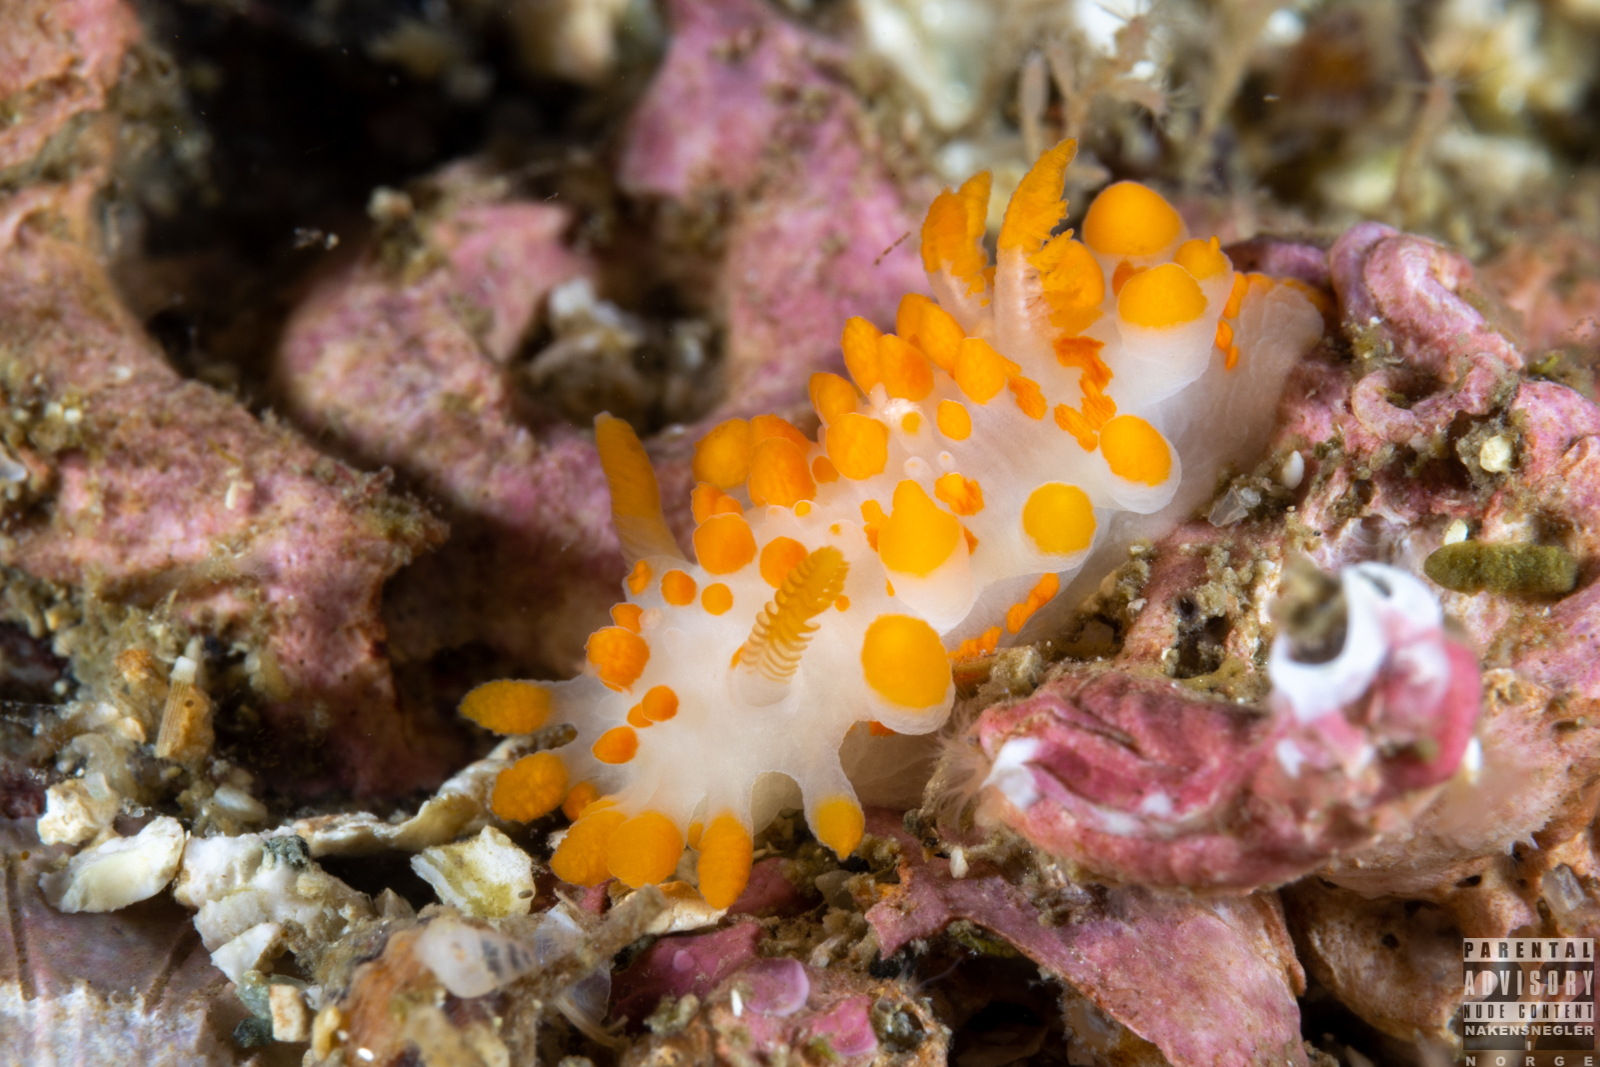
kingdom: Animalia
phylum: Mollusca
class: Gastropoda
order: Nudibranchia
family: Polyceridae
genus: Limacia
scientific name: Limacia clavigera
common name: Orange-clubbed sea slug
